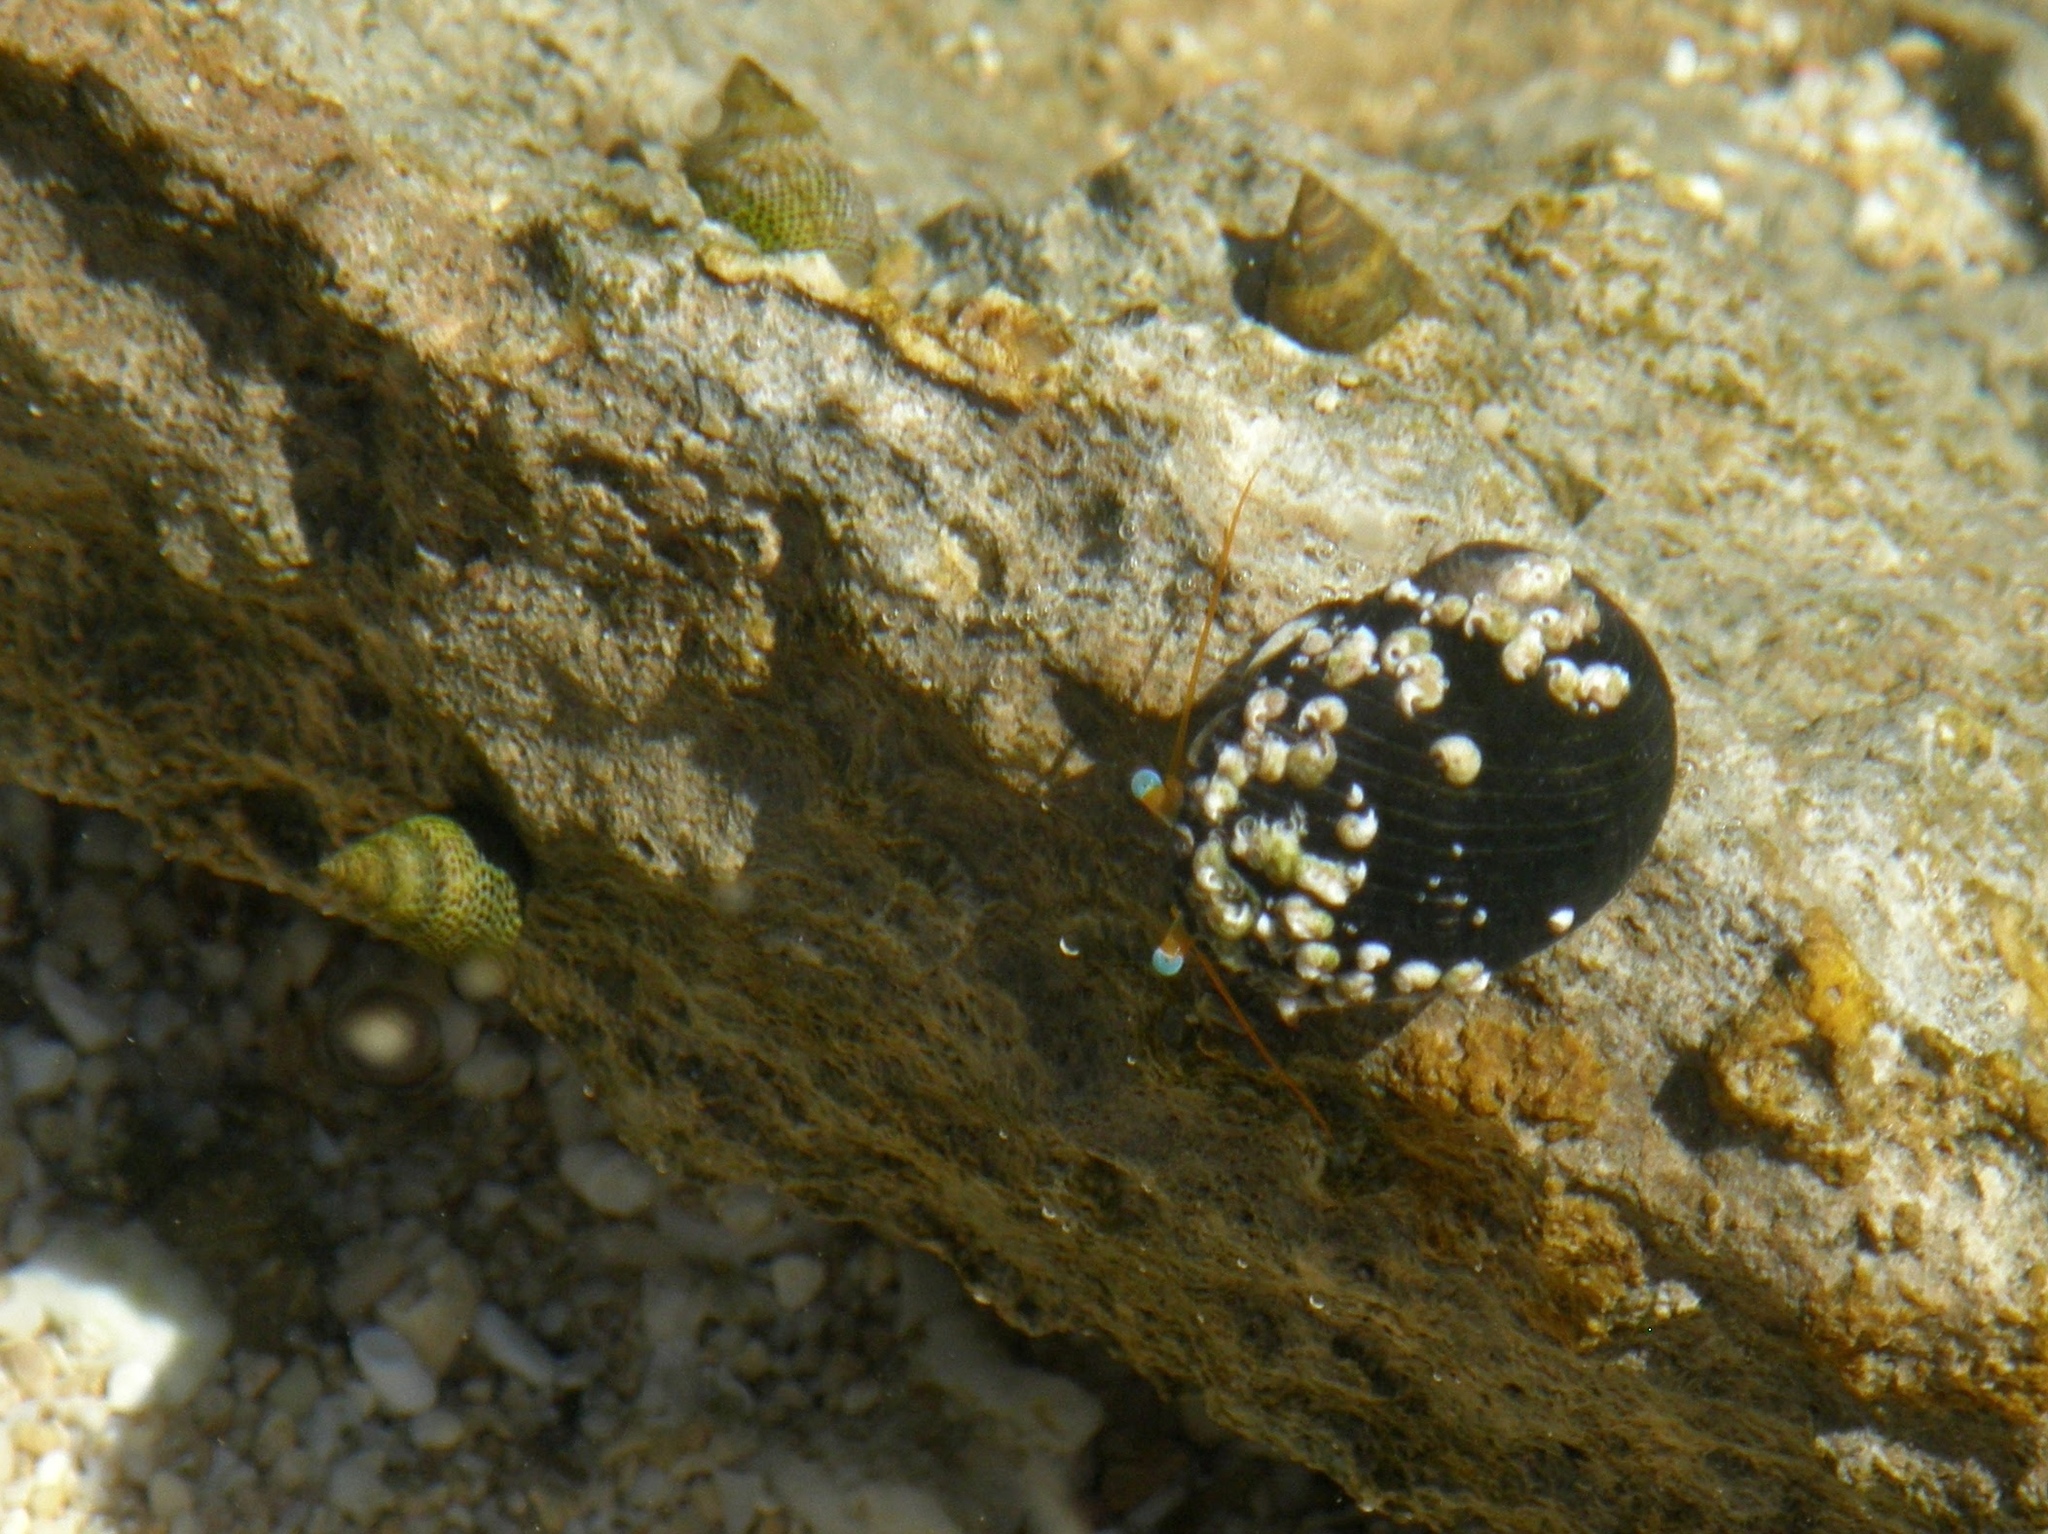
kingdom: Animalia
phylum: Arthropoda
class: Malacostraca
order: Decapoda
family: Diogenidae
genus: Calcinus
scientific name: Calcinus seurati
